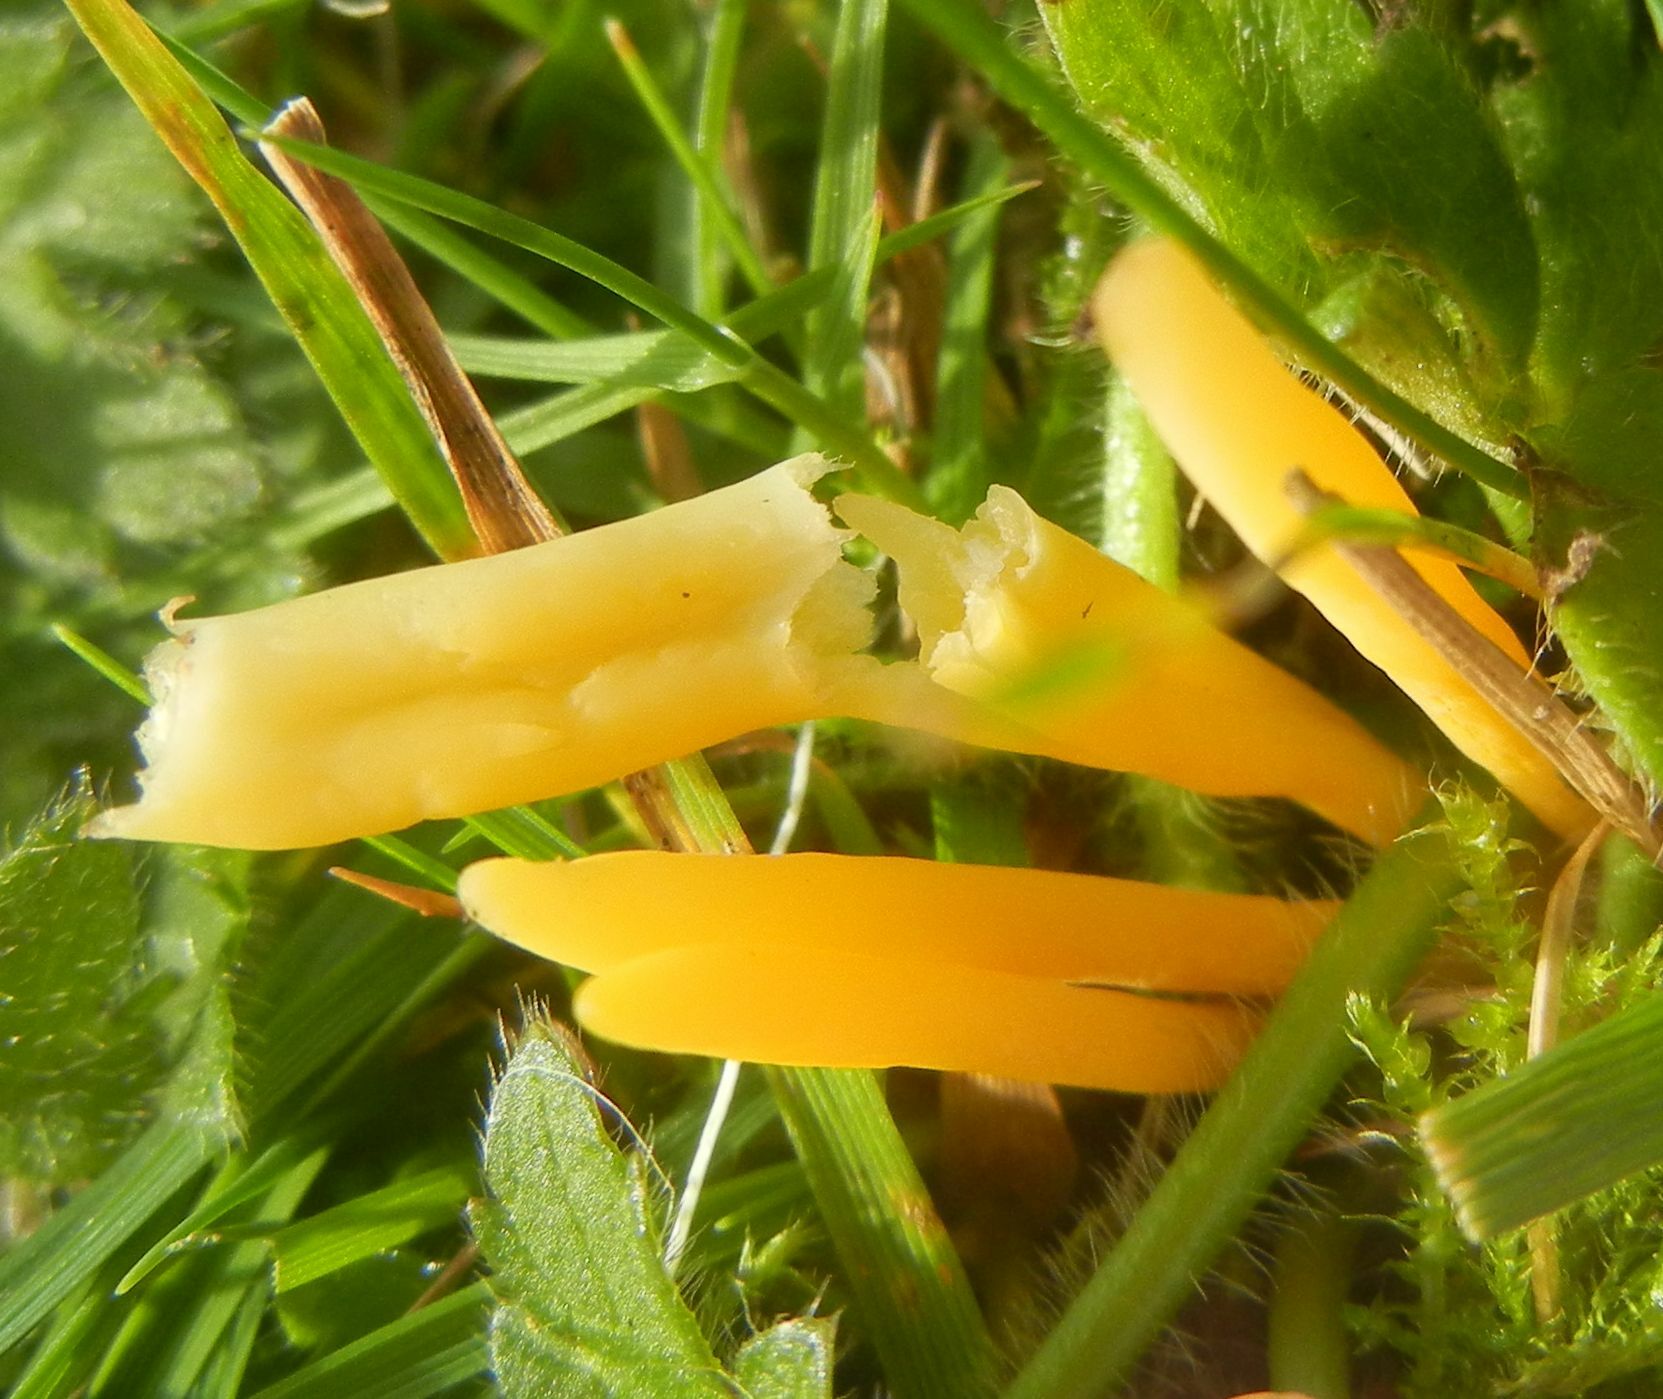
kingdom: Fungi
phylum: Basidiomycota
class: Agaricomycetes
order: Agaricales
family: Clavariaceae
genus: Clavulinopsis
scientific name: Clavulinopsis helvola
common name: Yellow club
